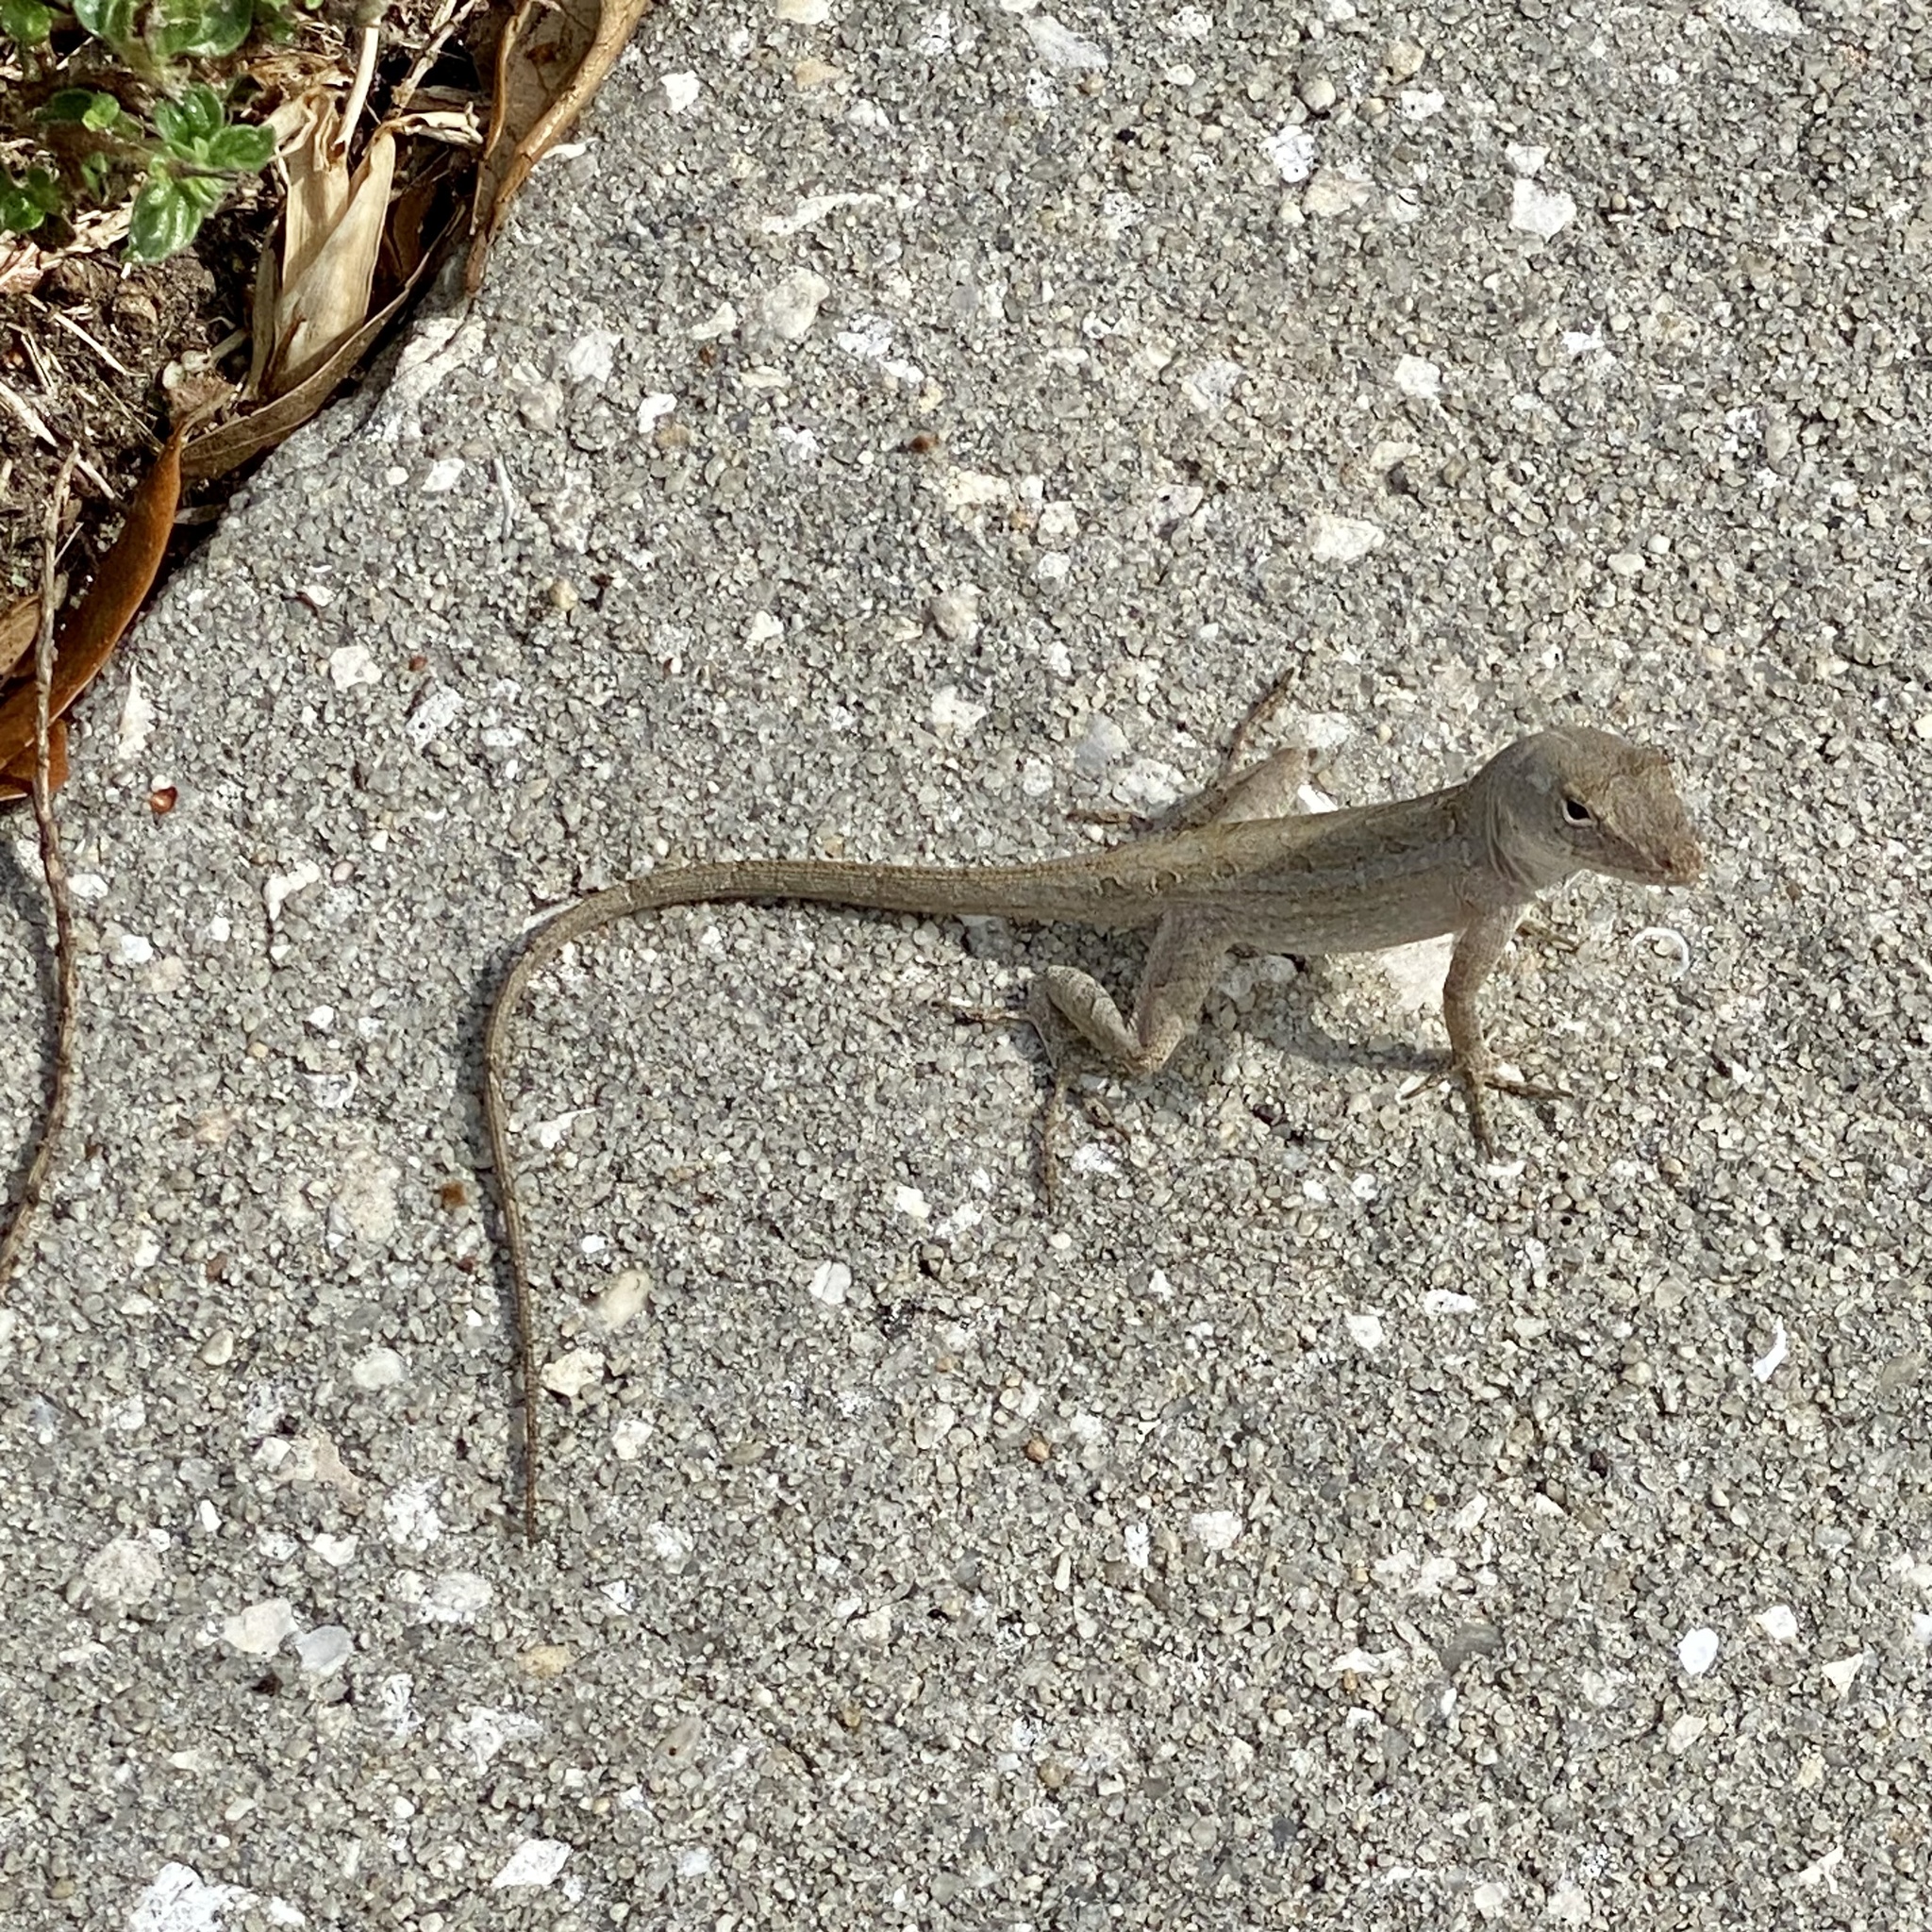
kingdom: Animalia
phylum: Chordata
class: Squamata
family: Dactyloidae
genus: Anolis
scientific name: Anolis sagrei
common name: Brown anole
